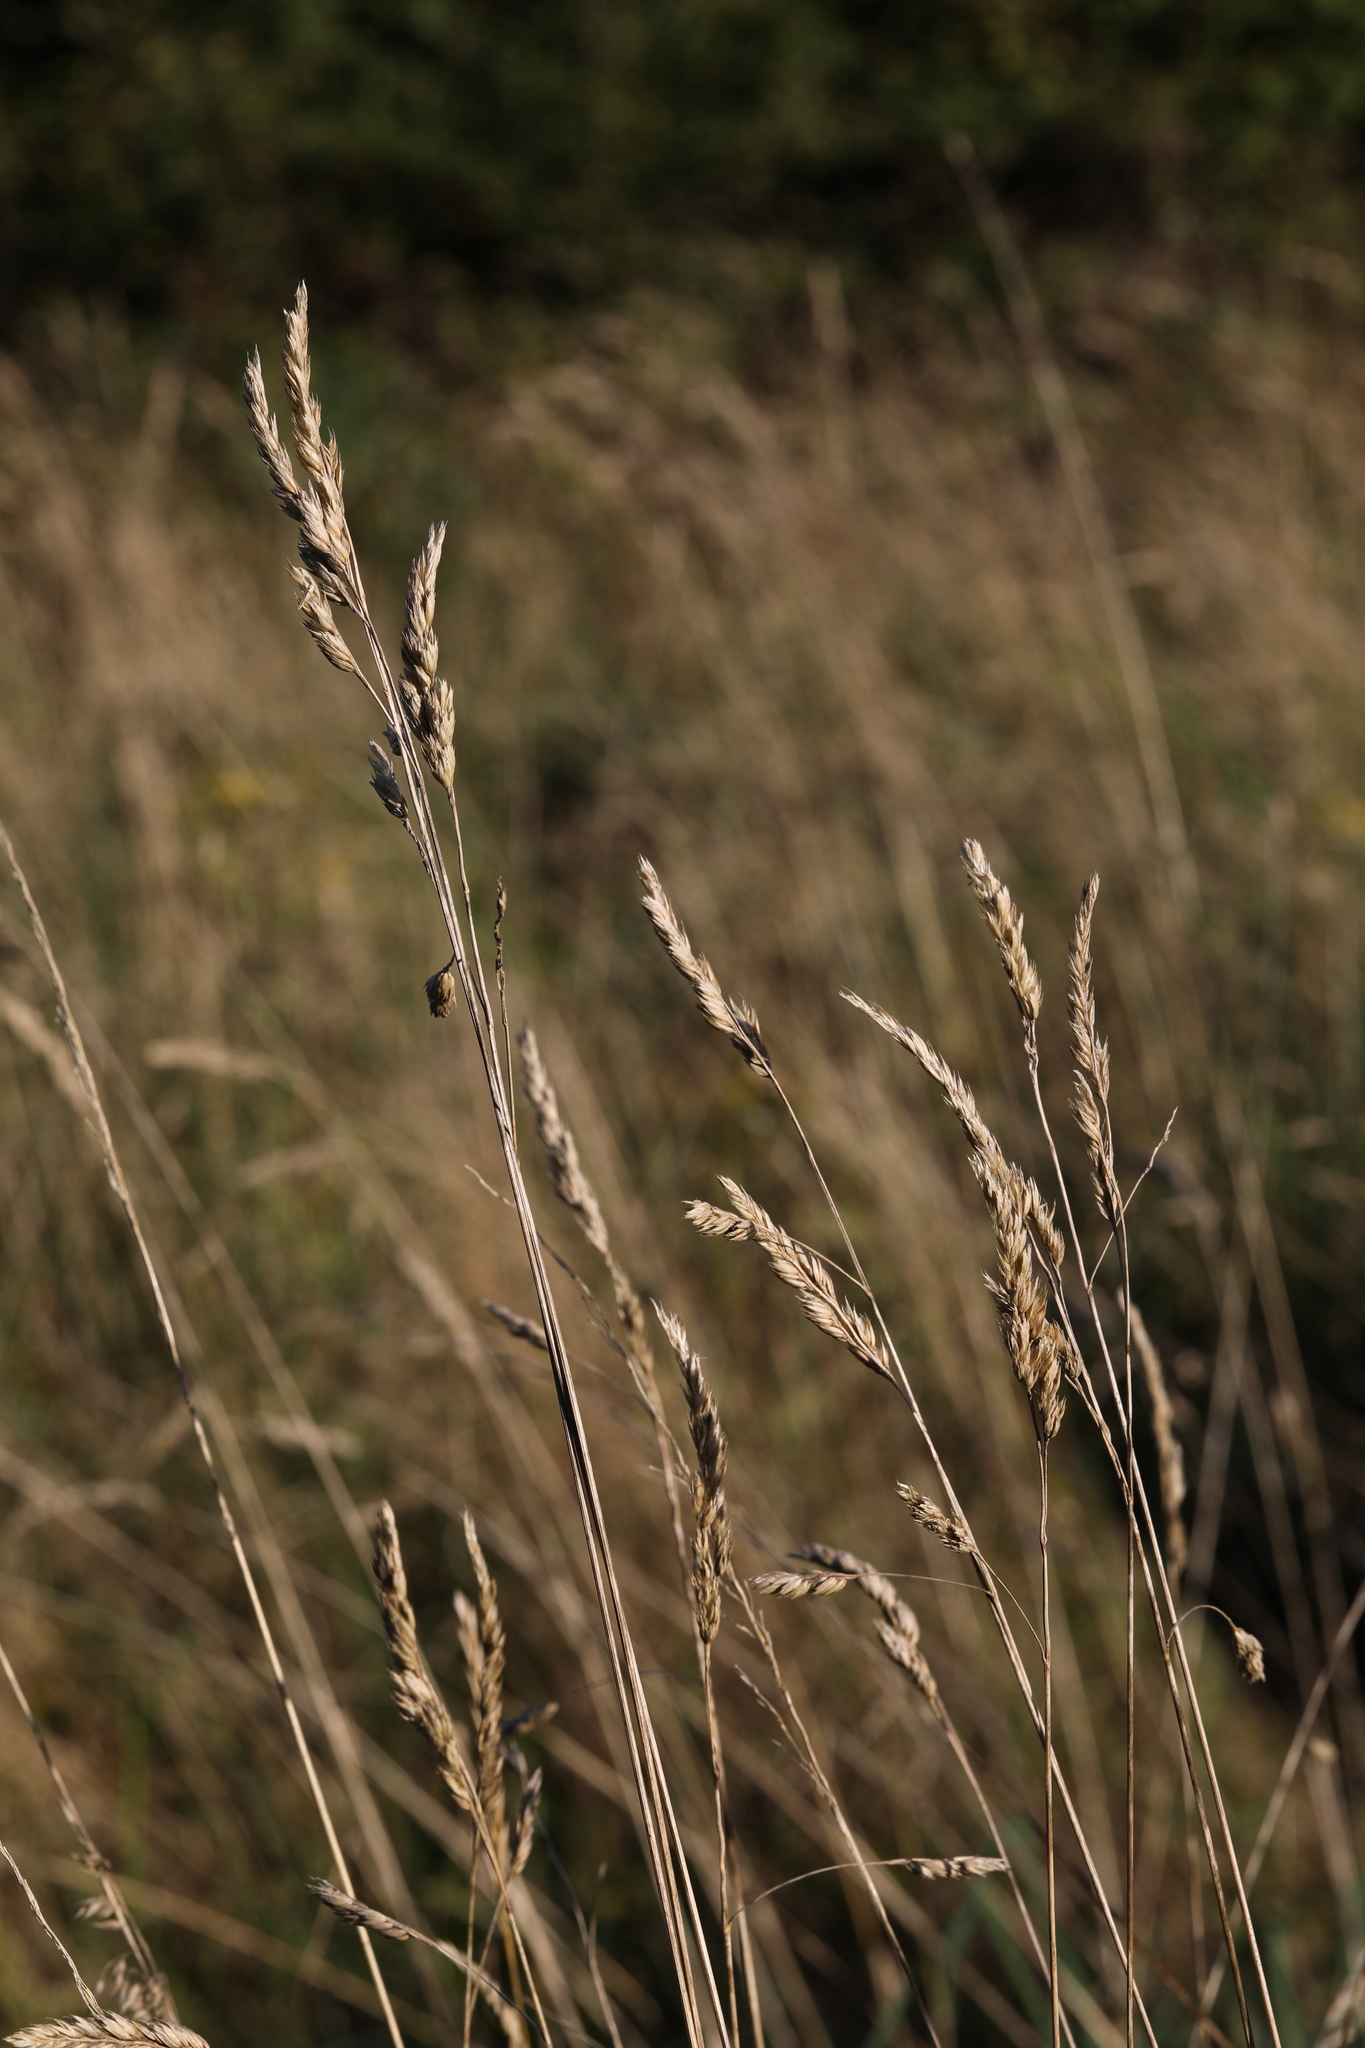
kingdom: Plantae
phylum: Tracheophyta
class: Liliopsida
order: Poales
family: Poaceae
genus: Dactylis
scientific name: Dactylis glomerata
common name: Orchardgrass
